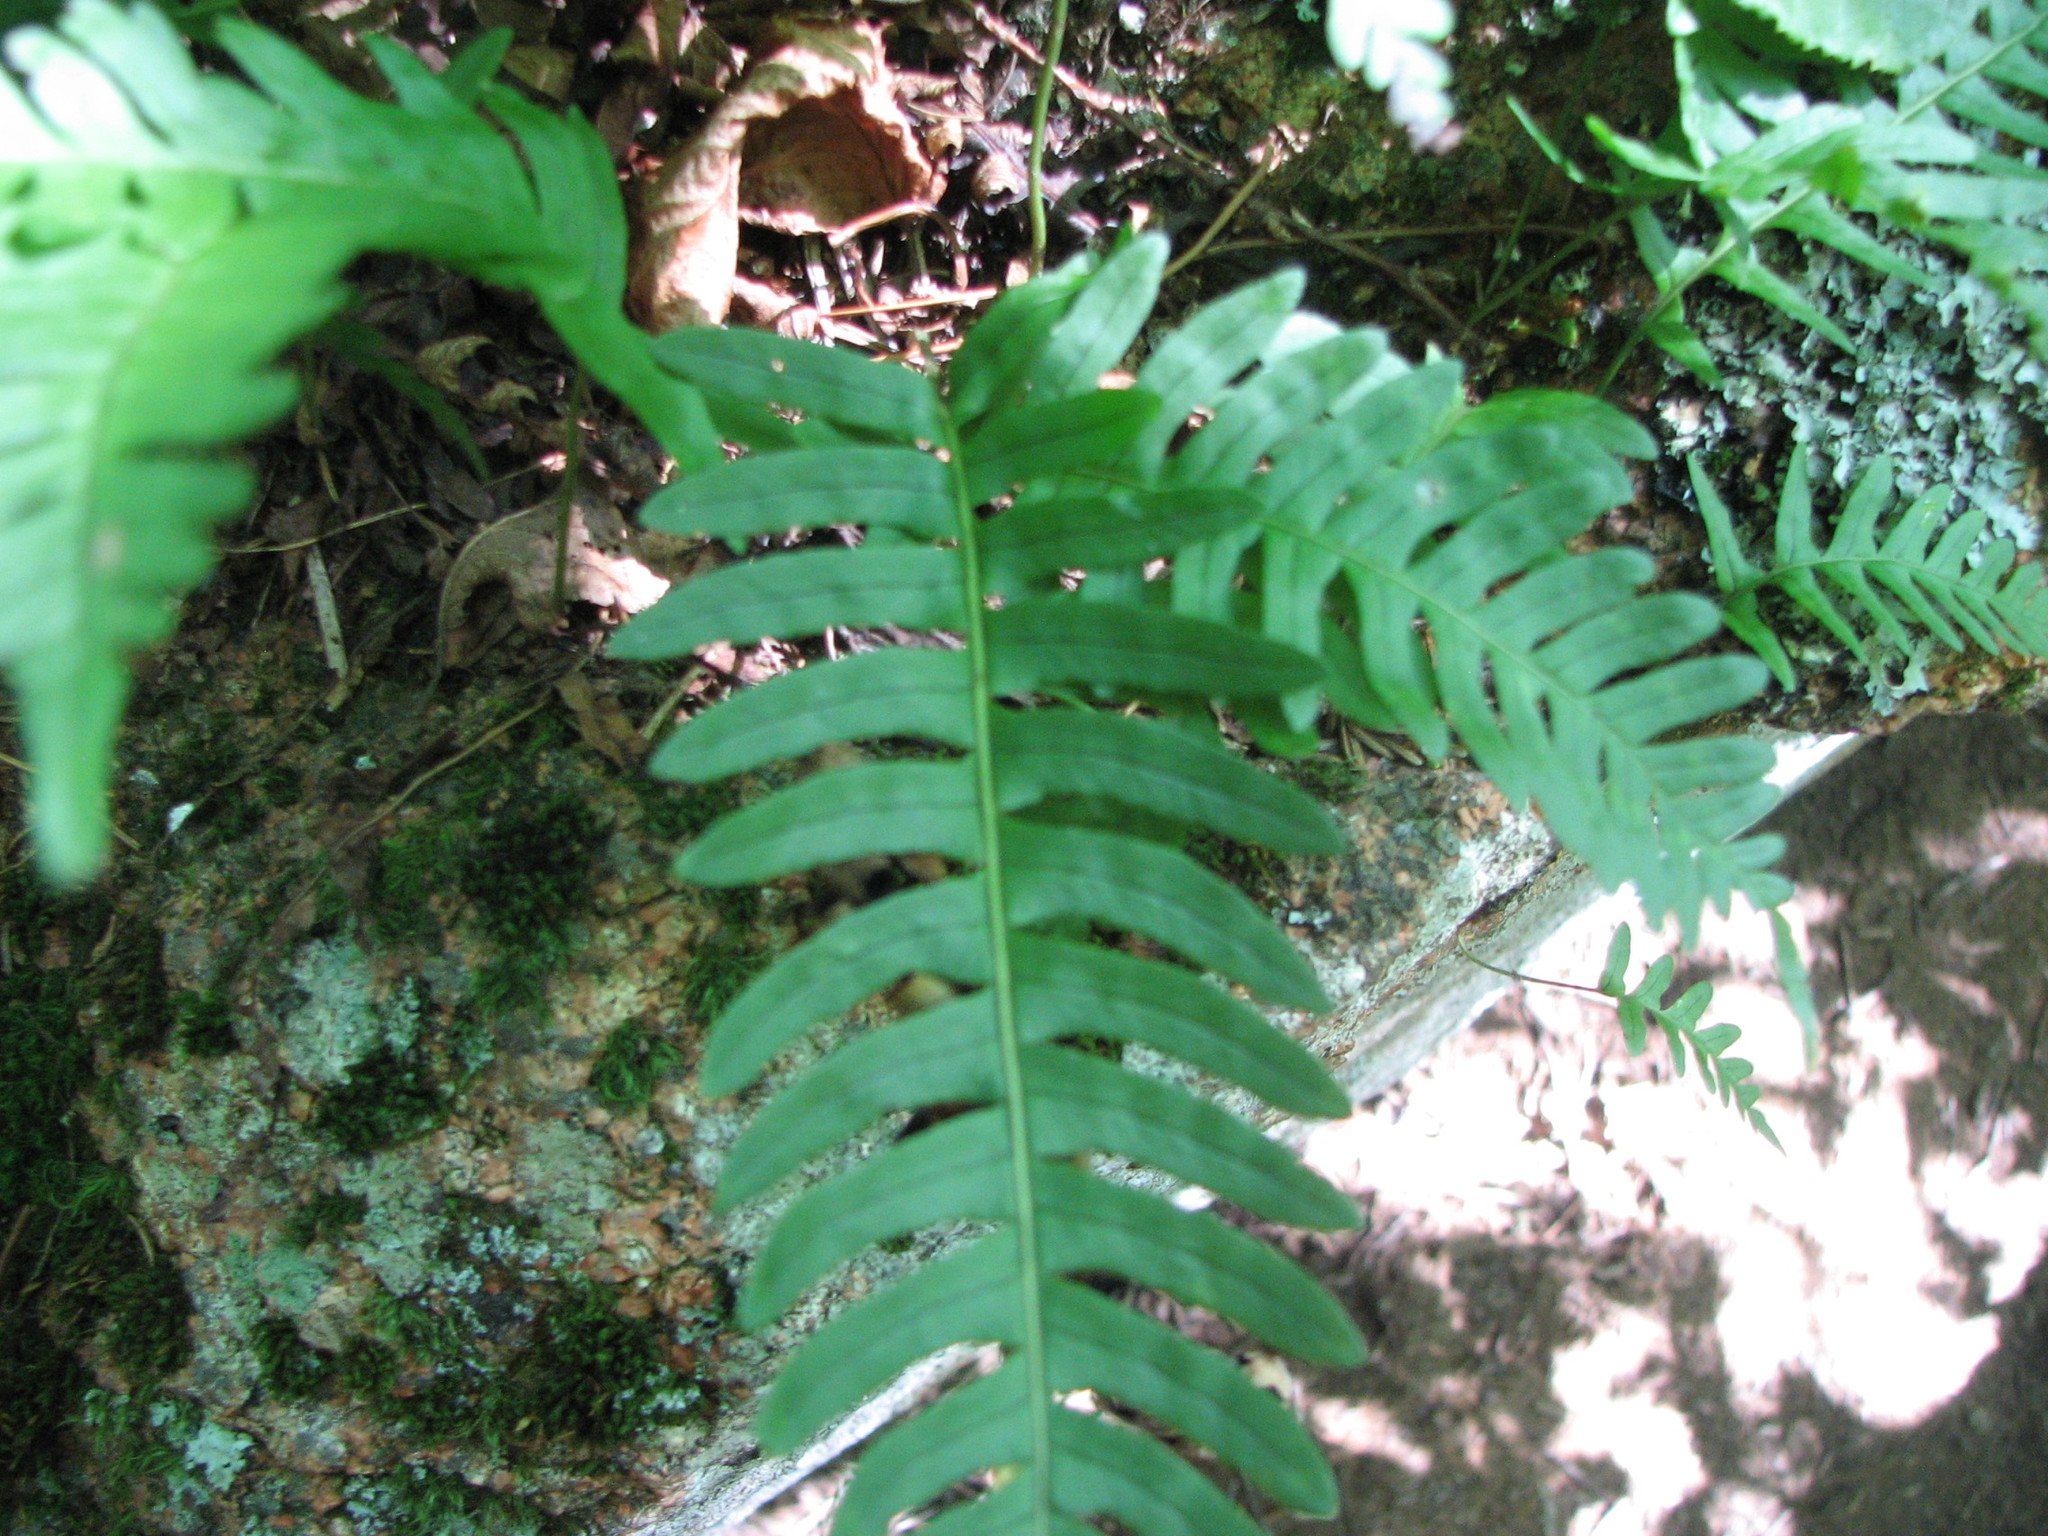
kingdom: Plantae
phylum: Tracheophyta
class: Polypodiopsida
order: Polypodiales
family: Polypodiaceae
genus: Polypodium
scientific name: Polypodium virginianum
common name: American wall fern
